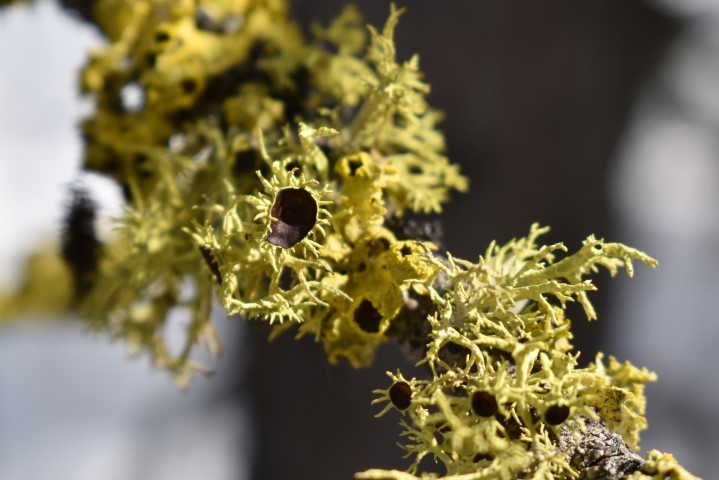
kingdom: Fungi
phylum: Ascomycota
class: Lecanoromycetes
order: Lecanorales
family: Parmeliaceae
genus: Letharia
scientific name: Letharia columbiana
